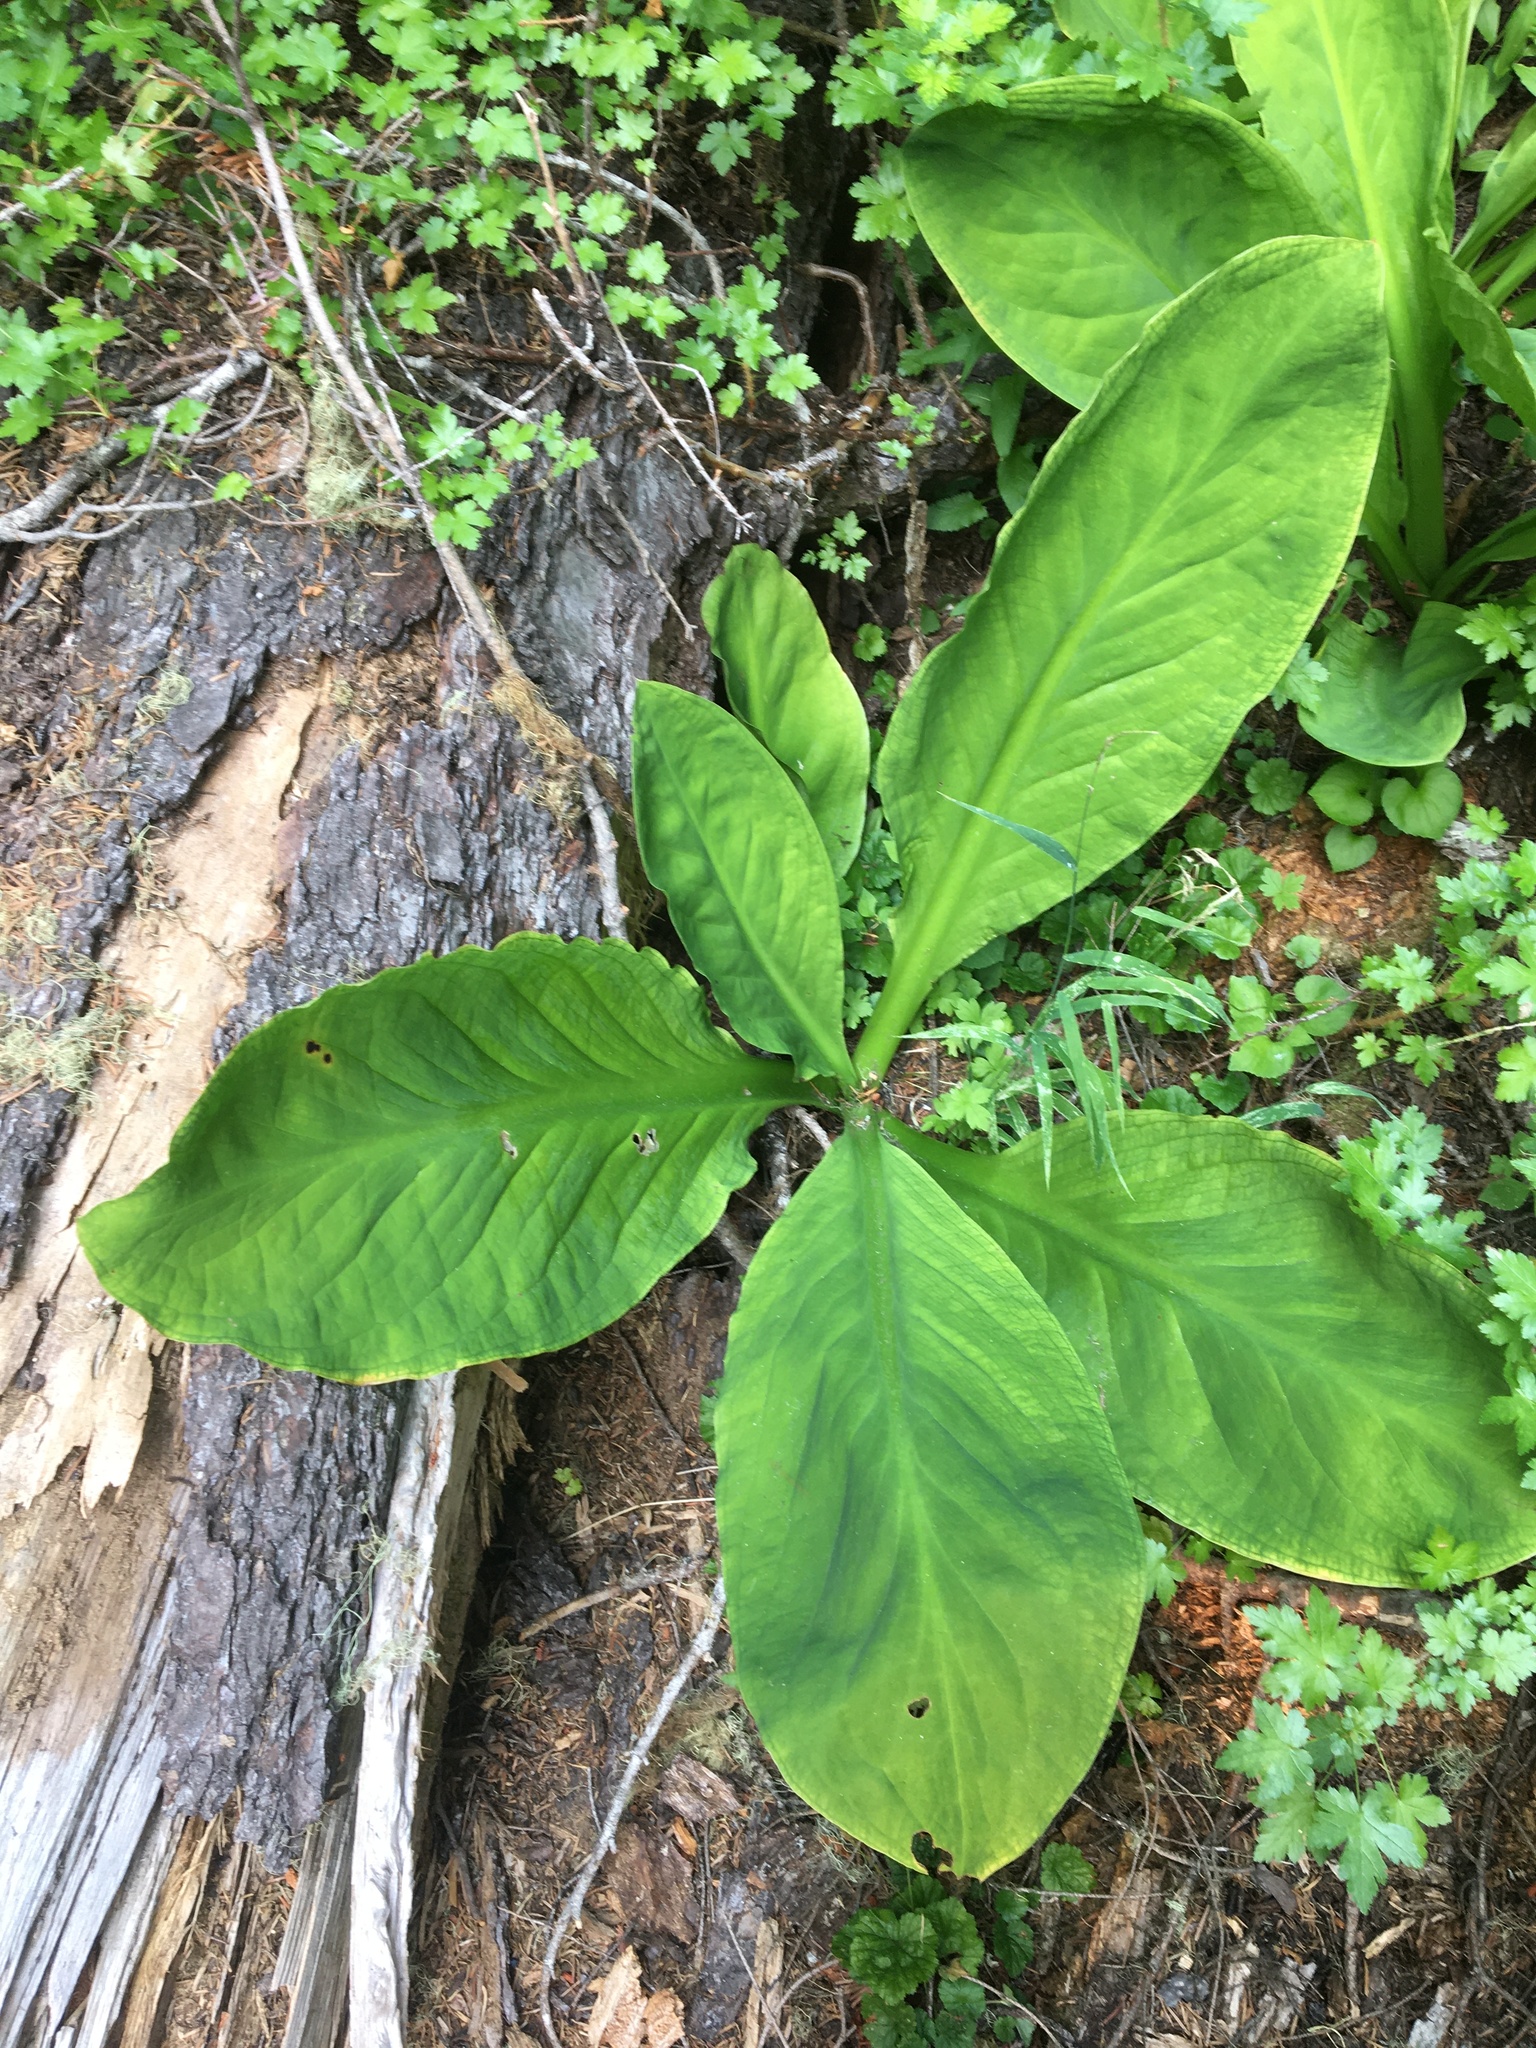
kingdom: Plantae
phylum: Tracheophyta
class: Liliopsida
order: Alismatales
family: Araceae
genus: Lysichiton
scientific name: Lysichiton americanus
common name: American skunk cabbage
